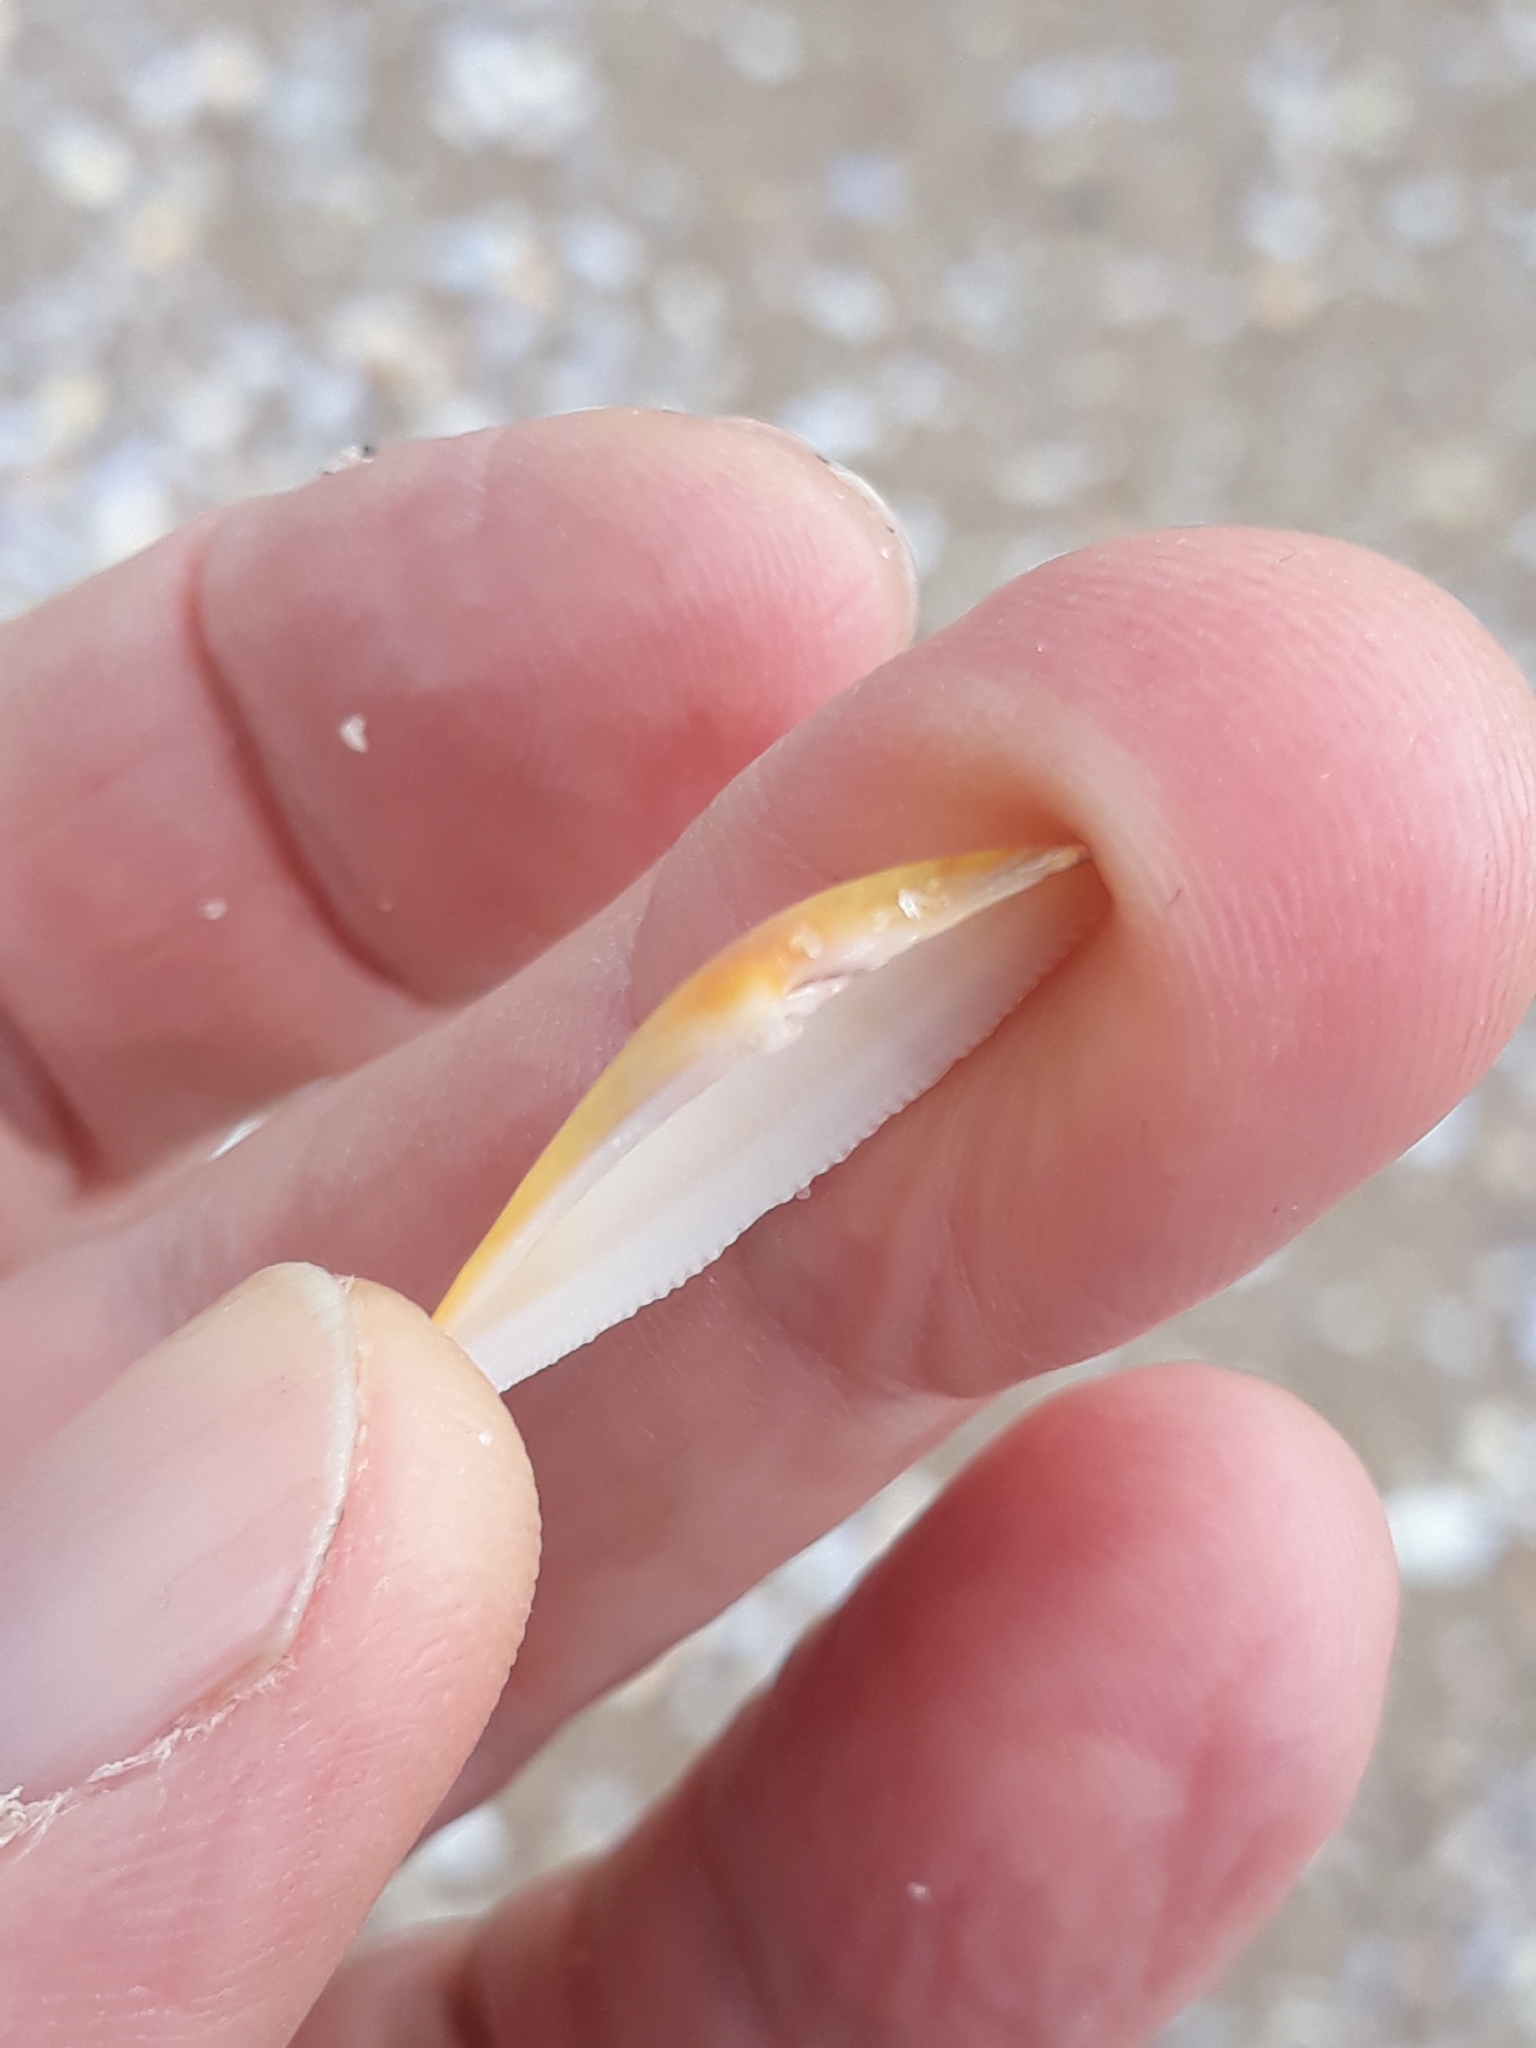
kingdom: Animalia
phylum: Mollusca
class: Bivalvia
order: Cardiida
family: Donacidae
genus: Donax
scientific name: Donax trunculus
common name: Truncate donax
